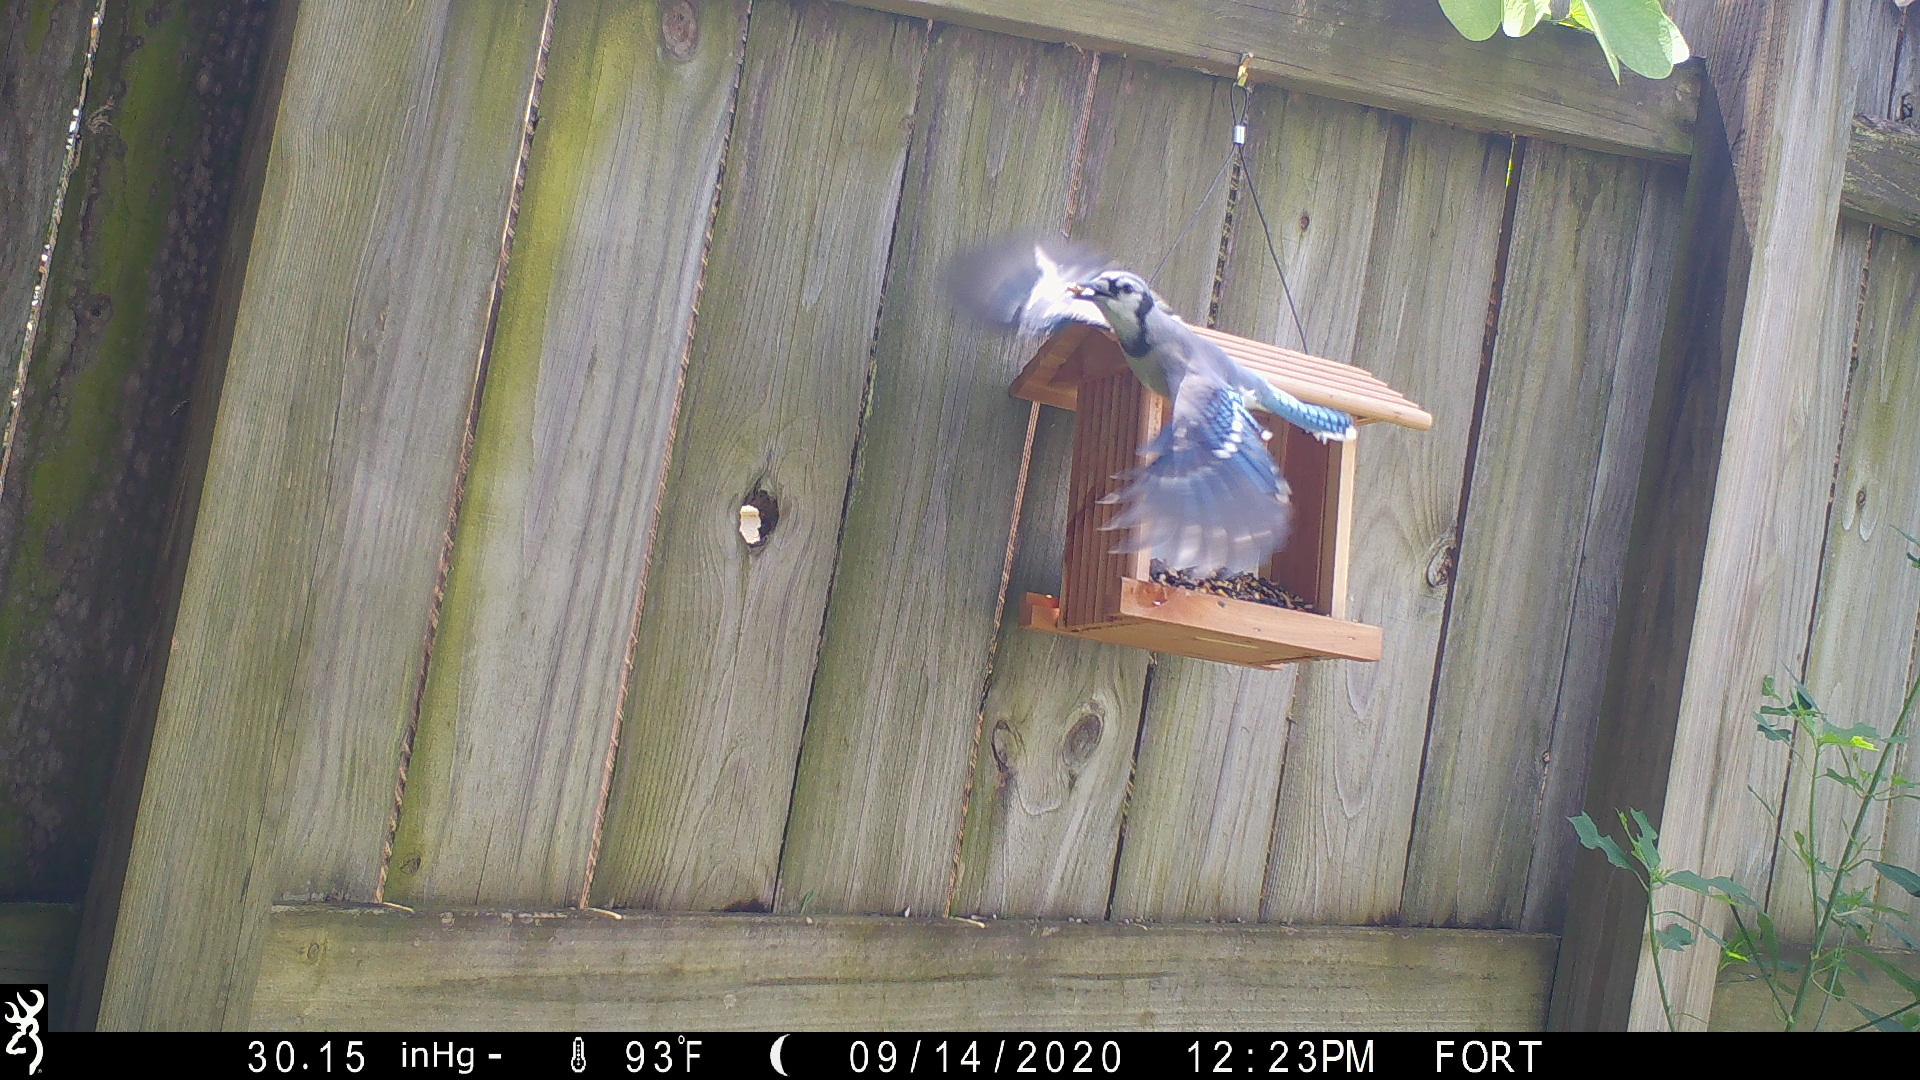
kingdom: Animalia
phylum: Chordata
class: Aves
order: Passeriformes
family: Corvidae
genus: Cyanocitta
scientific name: Cyanocitta cristata
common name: Blue jay
